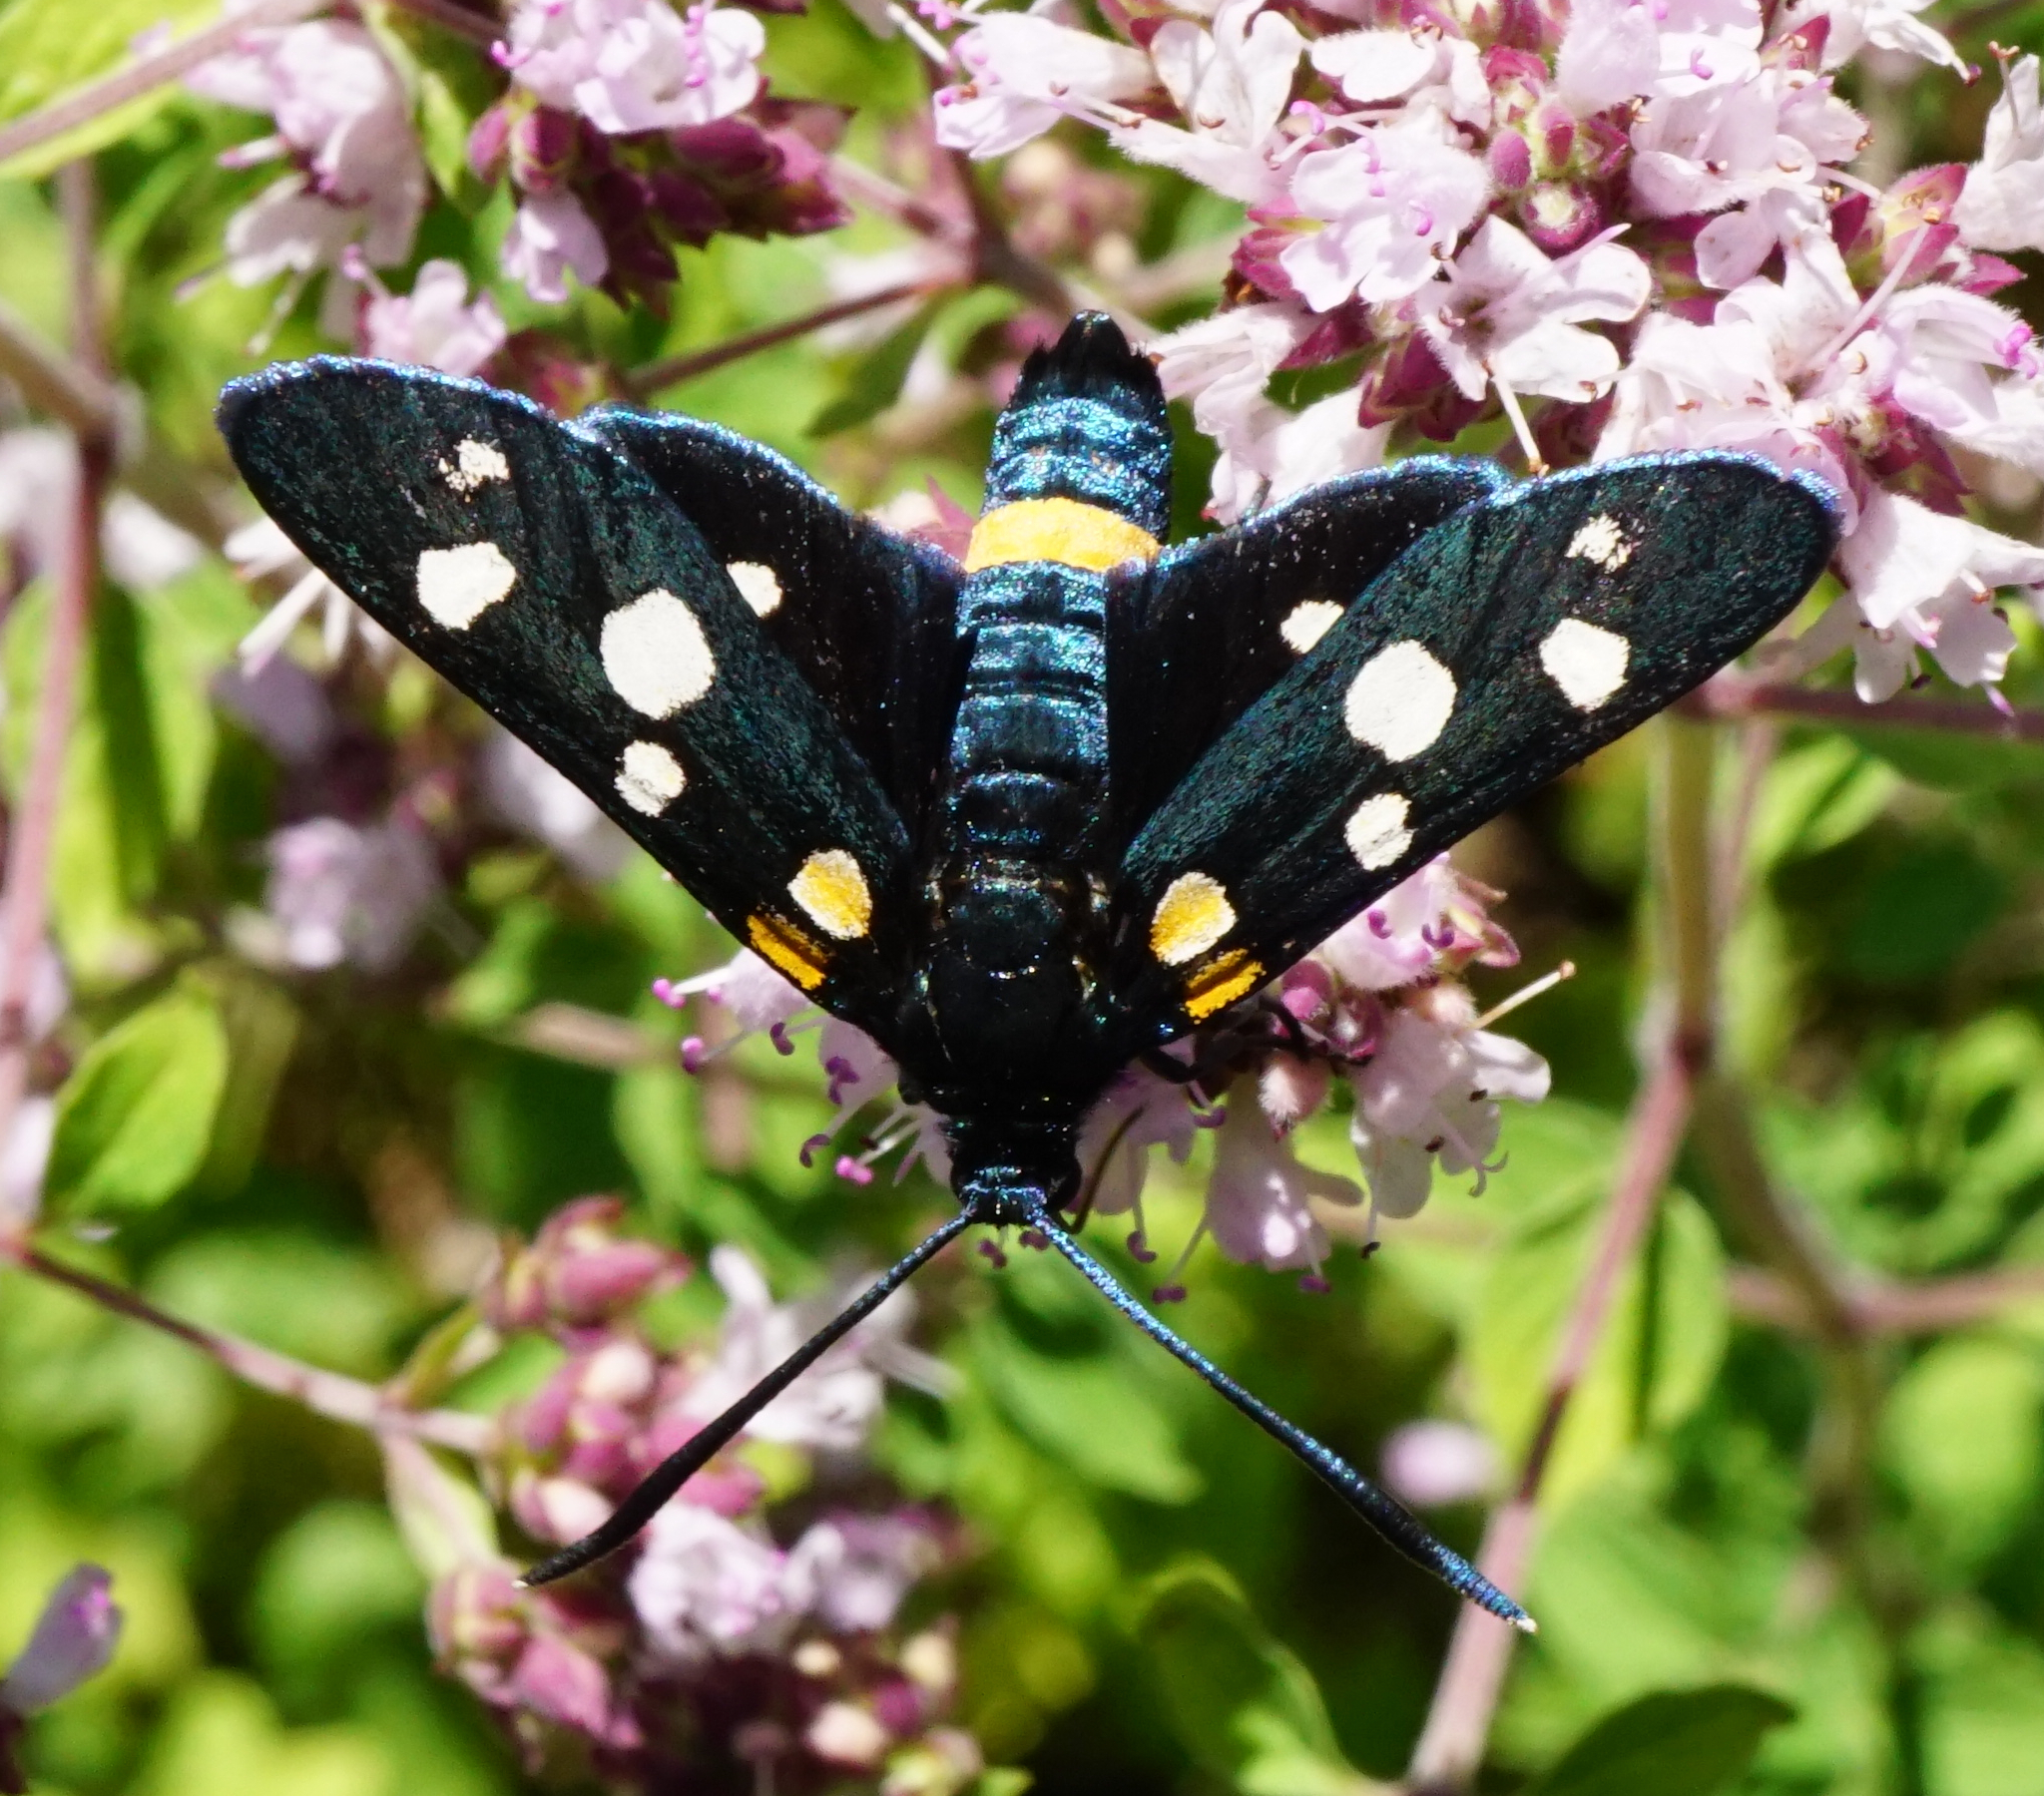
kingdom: Animalia
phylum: Arthropoda
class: Insecta
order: Lepidoptera
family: Zygaenidae
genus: Zygaena
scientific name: Zygaena ephialtes
